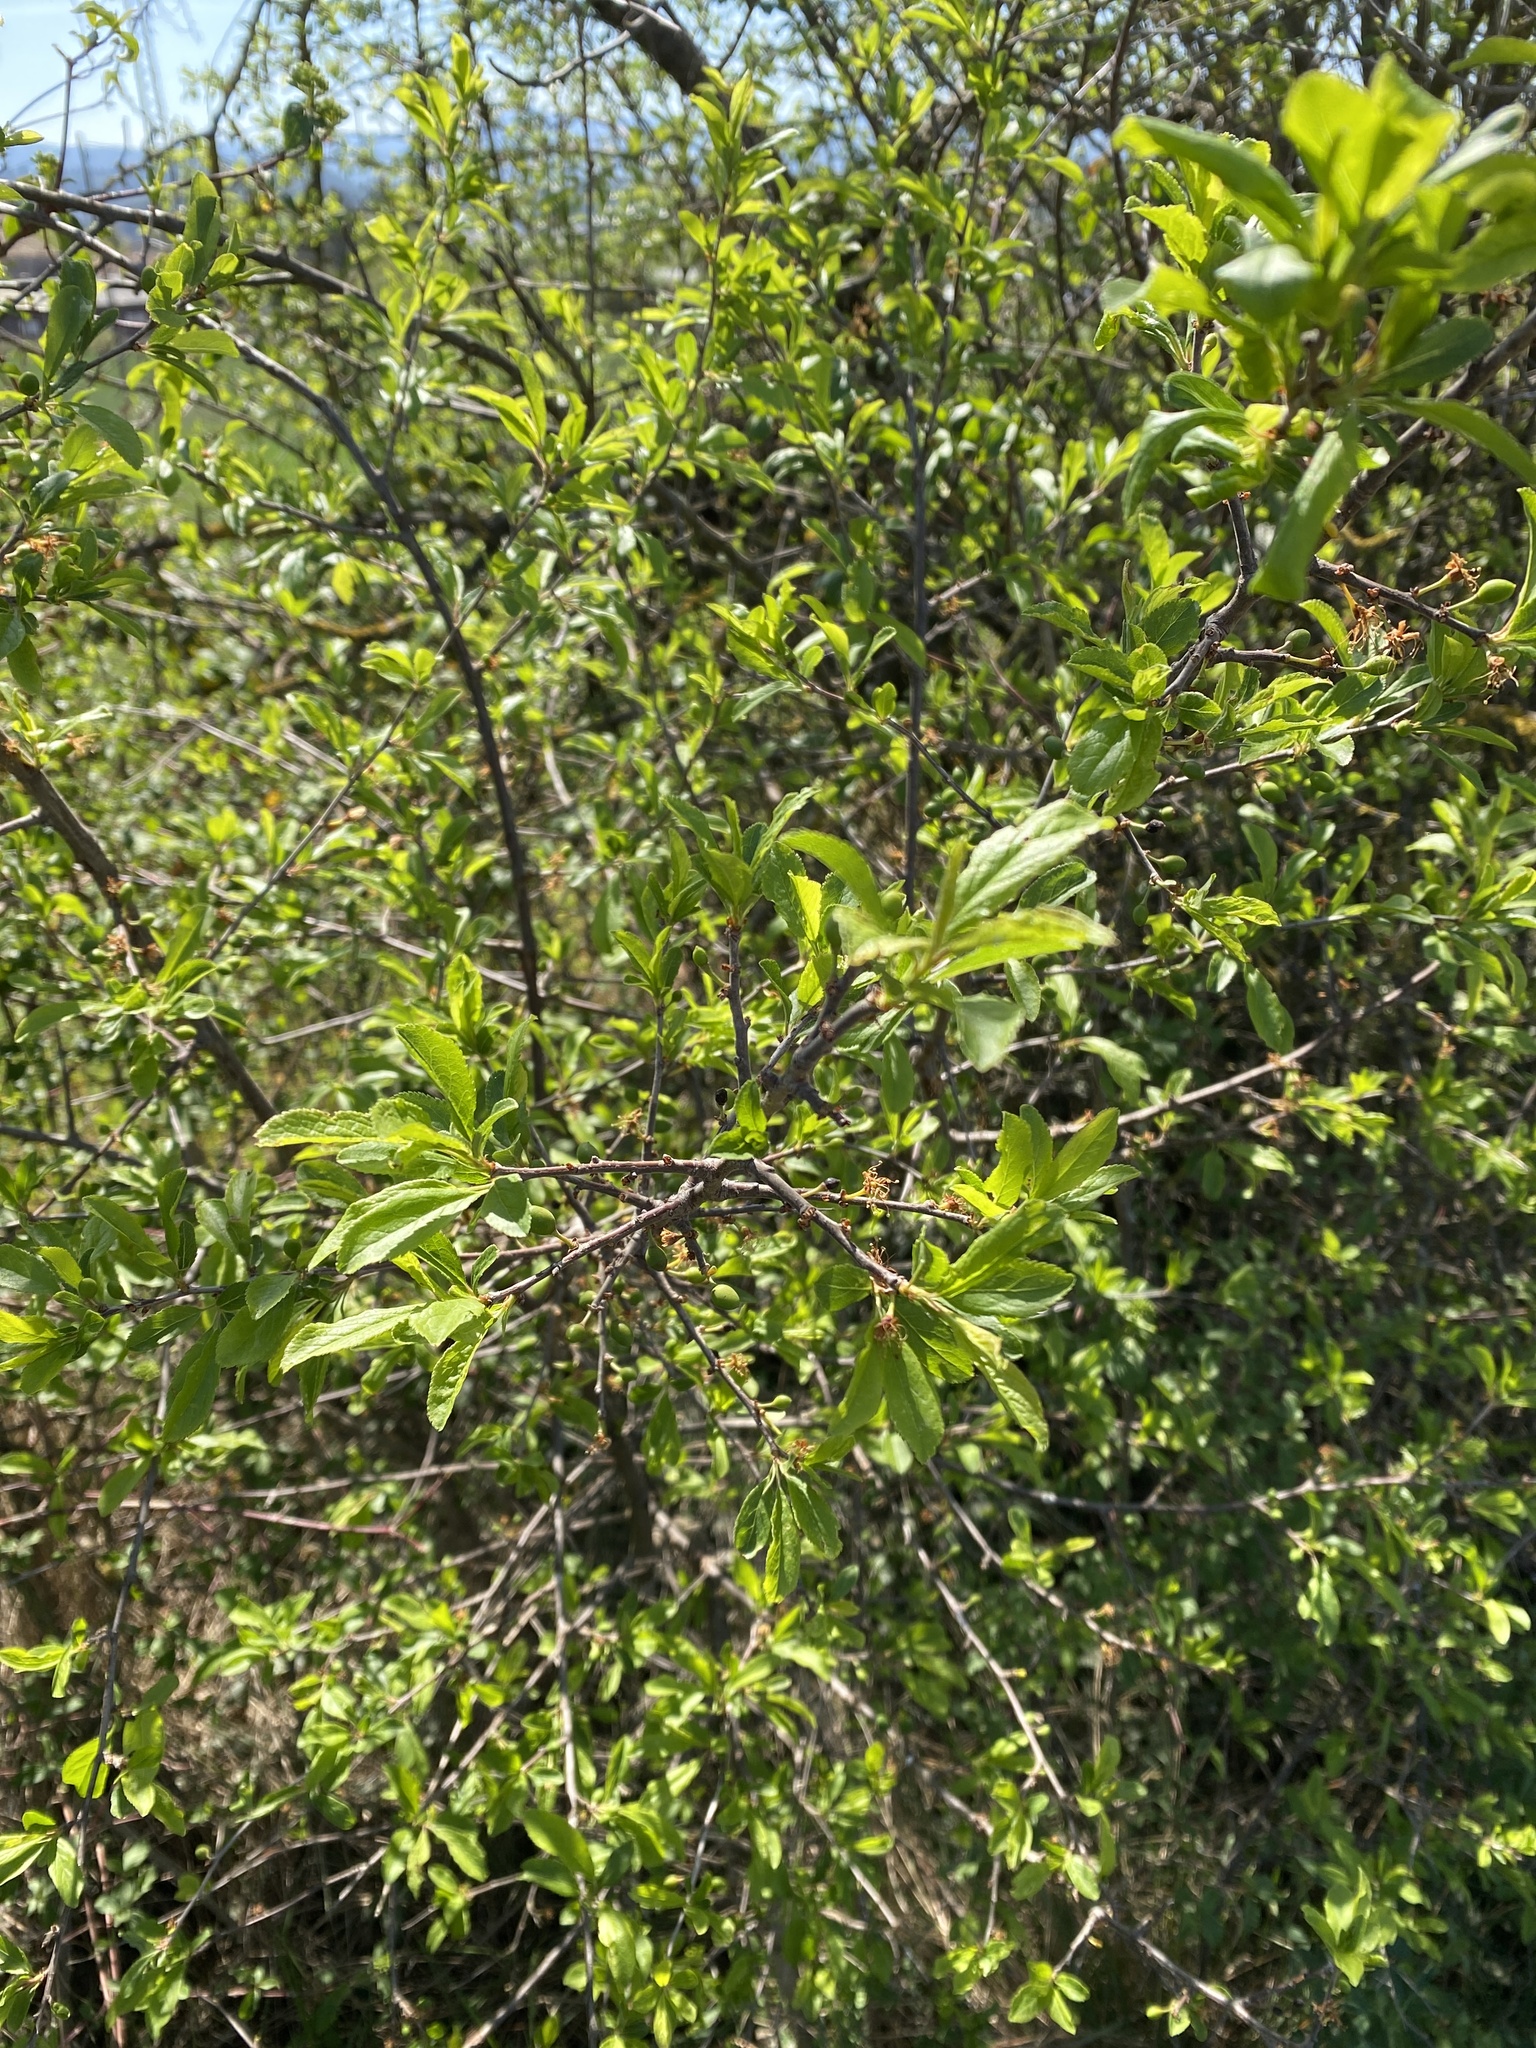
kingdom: Plantae
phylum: Tracheophyta
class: Magnoliopsida
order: Rosales
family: Rosaceae
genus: Prunus
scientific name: Prunus spinosa
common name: Blackthorn
